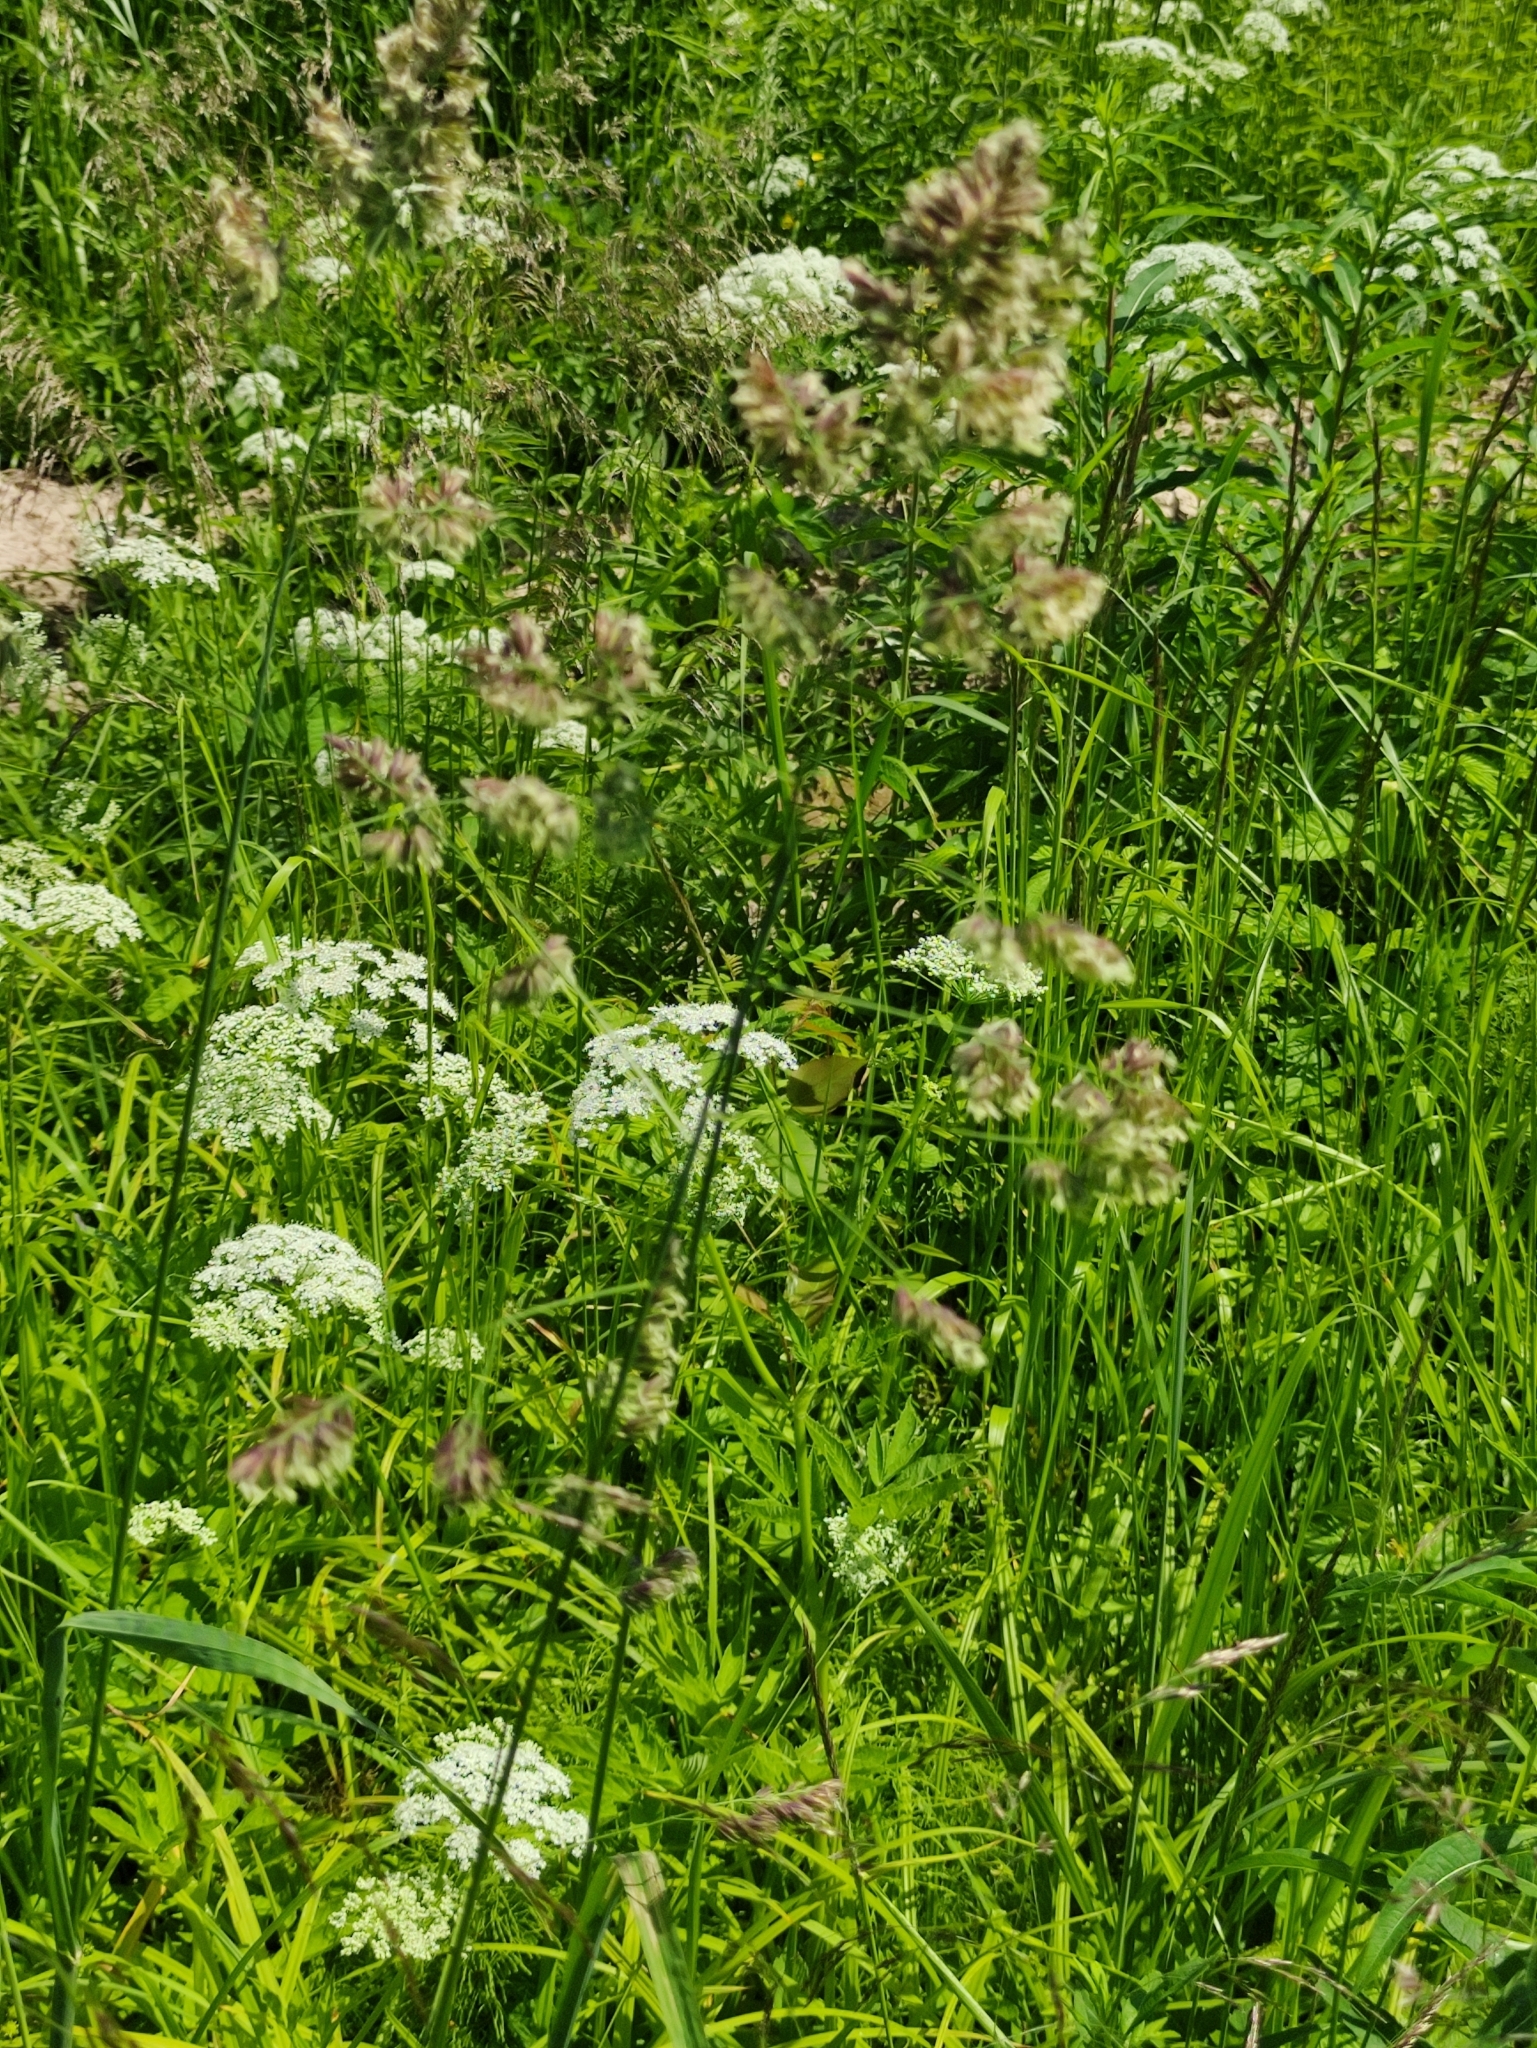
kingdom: Plantae
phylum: Tracheophyta
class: Liliopsida
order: Poales
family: Poaceae
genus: Dactylis
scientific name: Dactylis glomerata
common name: Orchardgrass
